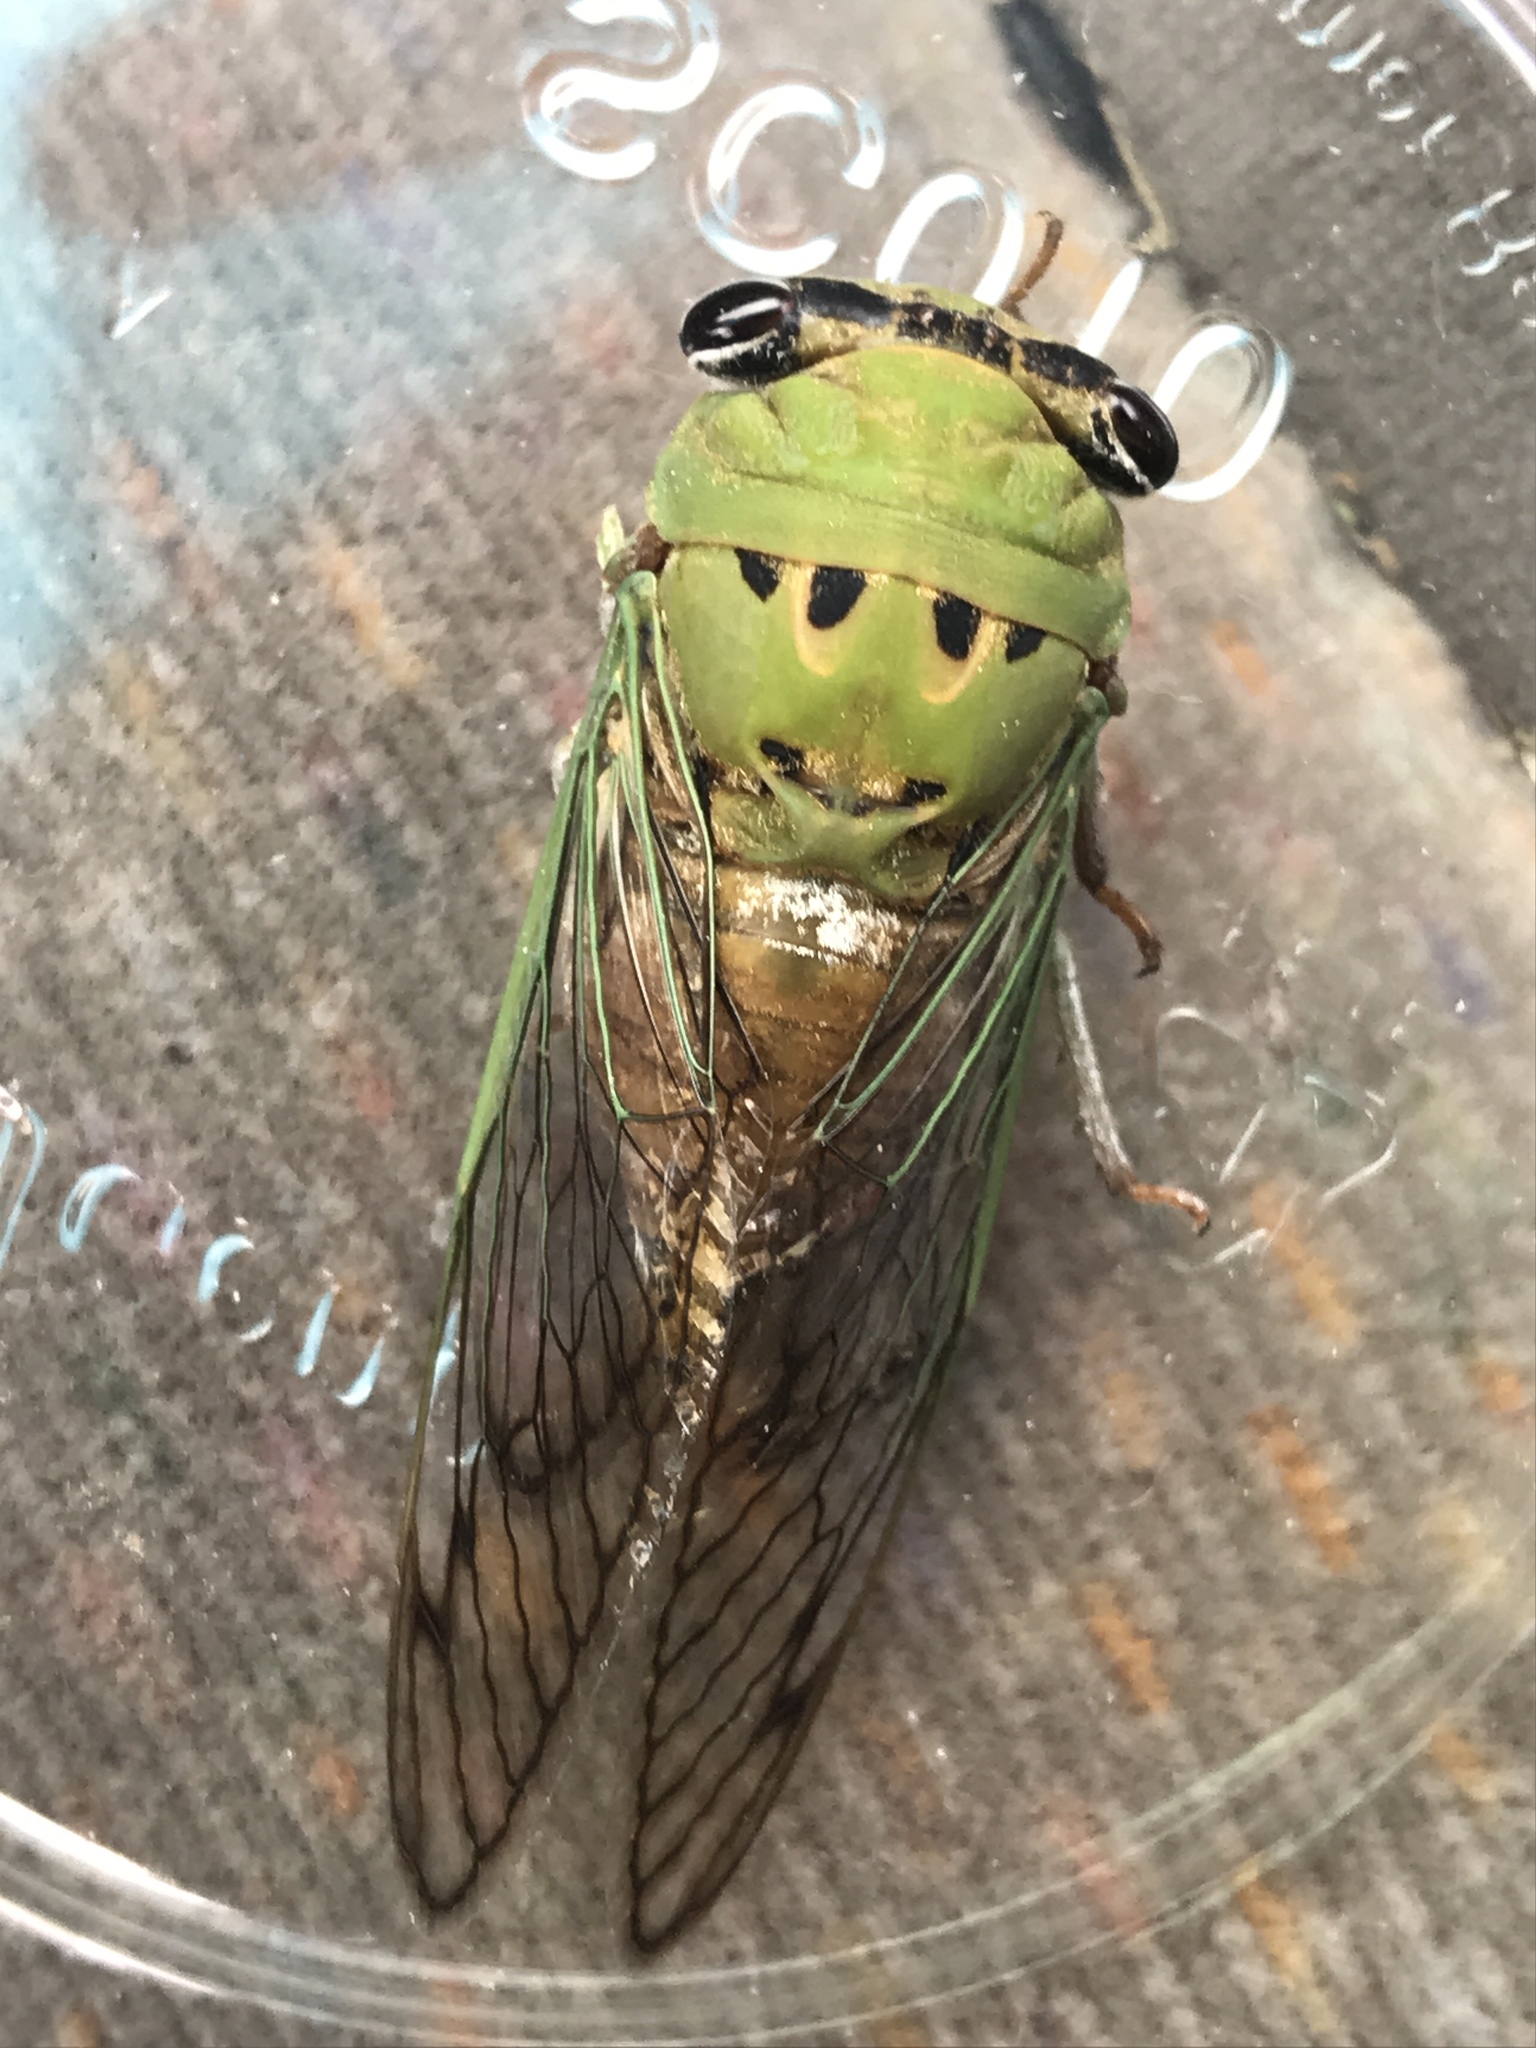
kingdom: Animalia
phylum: Arthropoda
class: Insecta
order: Hemiptera
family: Cicadidae
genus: Neotibicen
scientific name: Neotibicen superbus
